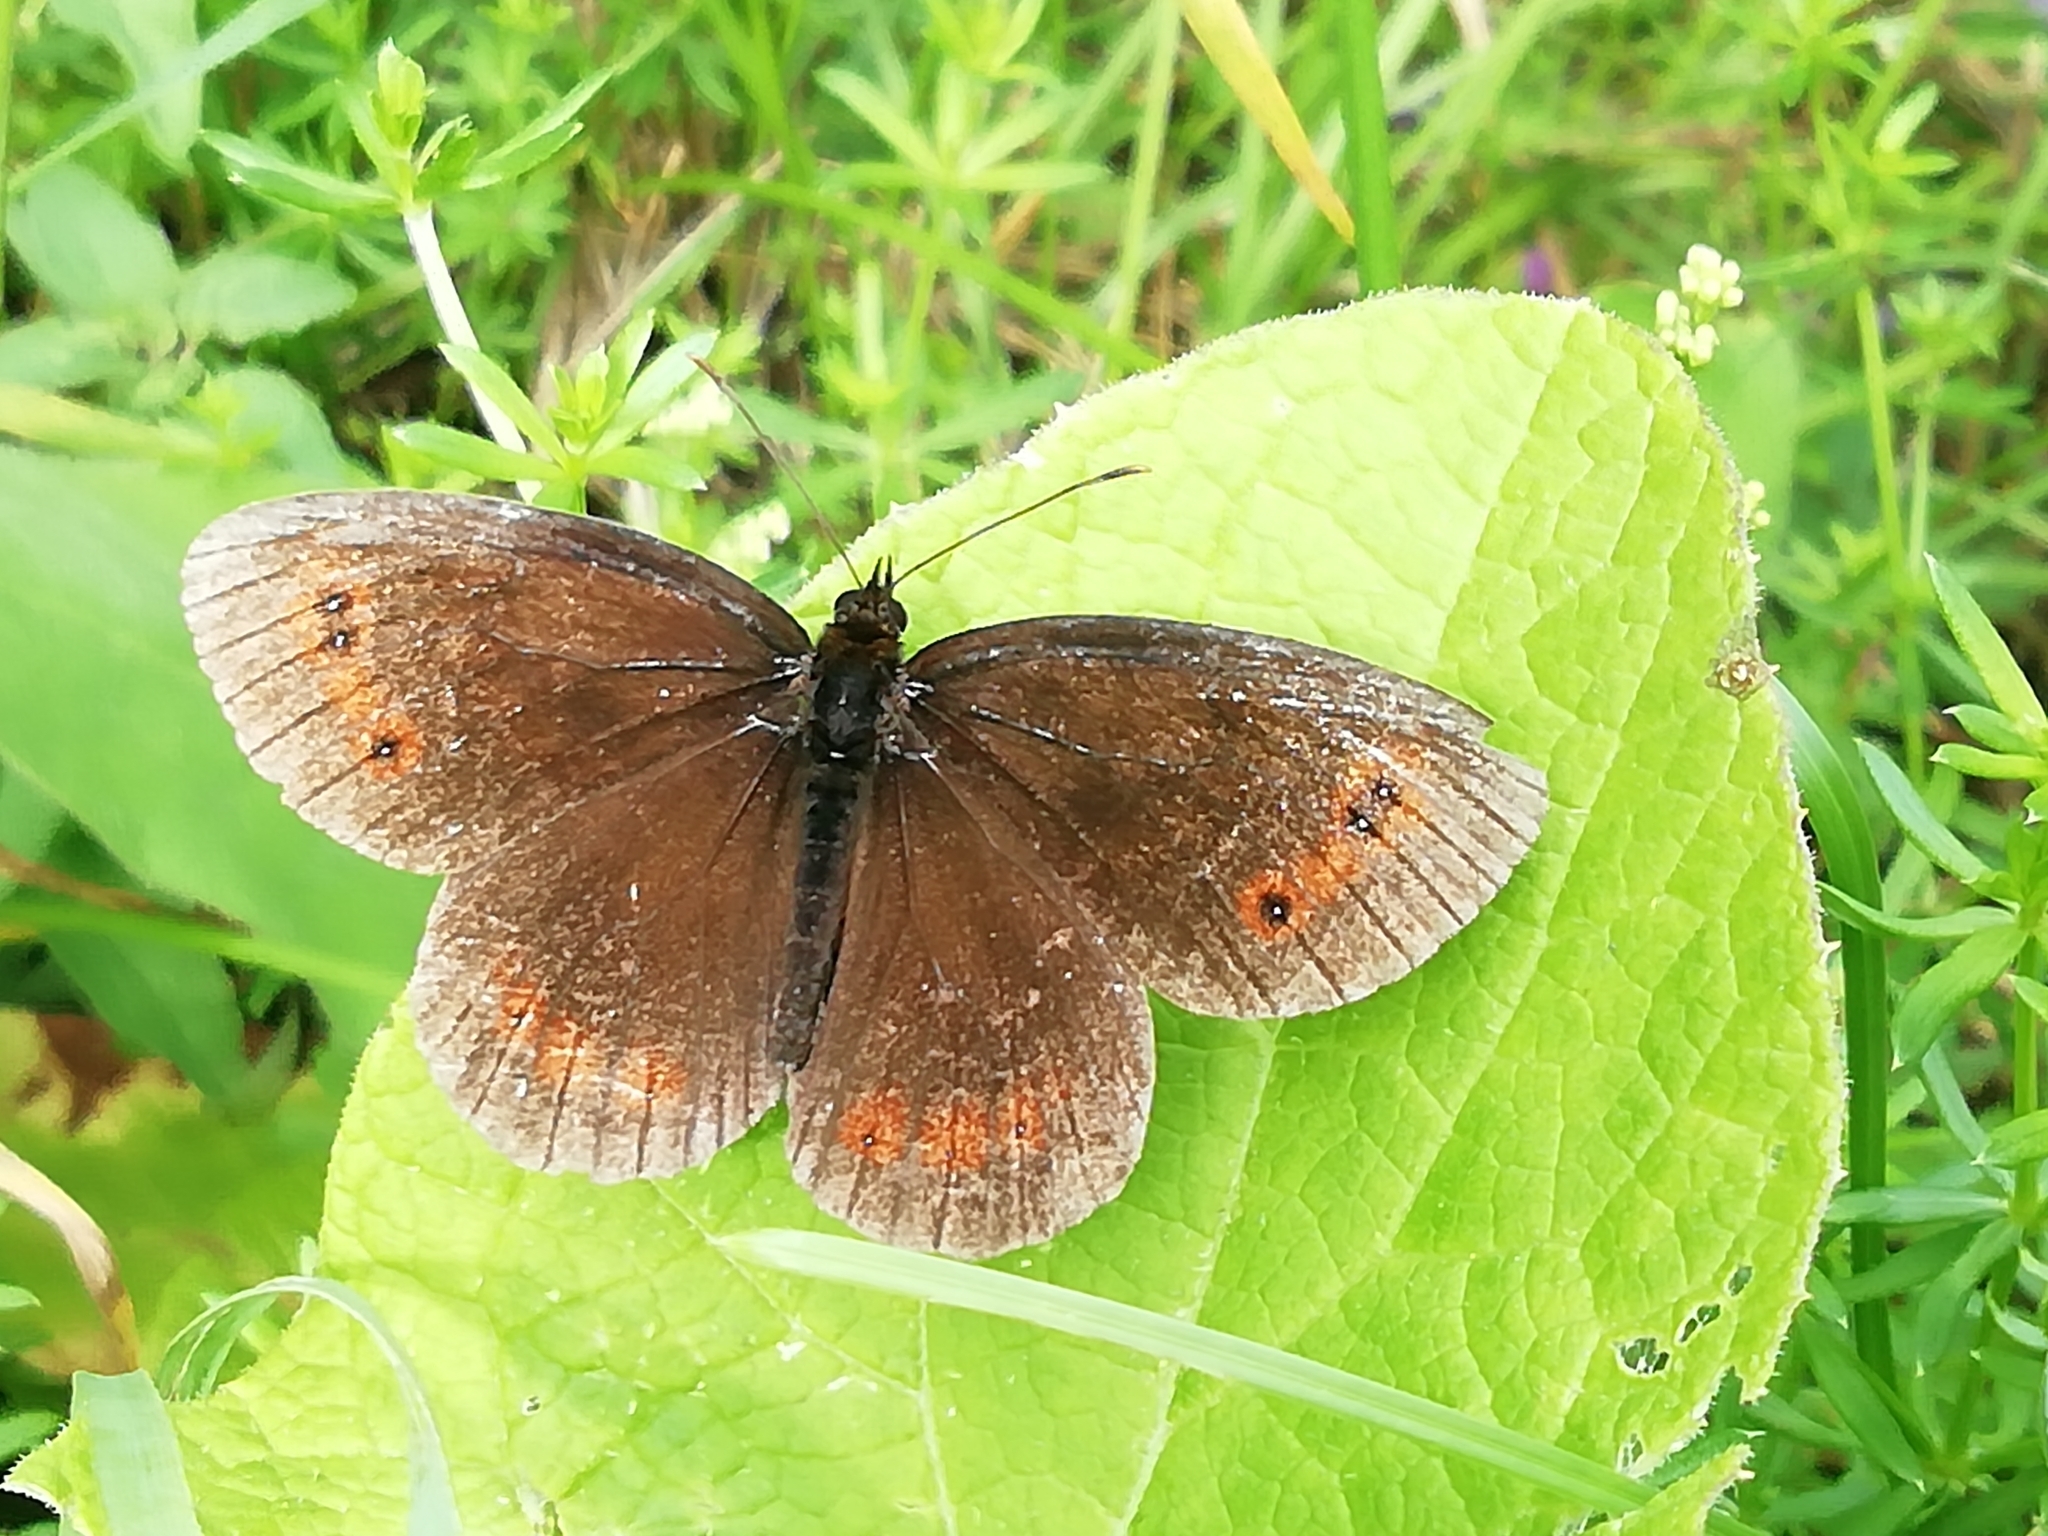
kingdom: Animalia
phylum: Arthropoda
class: Insecta
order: Lepidoptera
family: Nymphalidae
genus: Erebia
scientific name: Erebia aethiops
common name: Scotch argus
